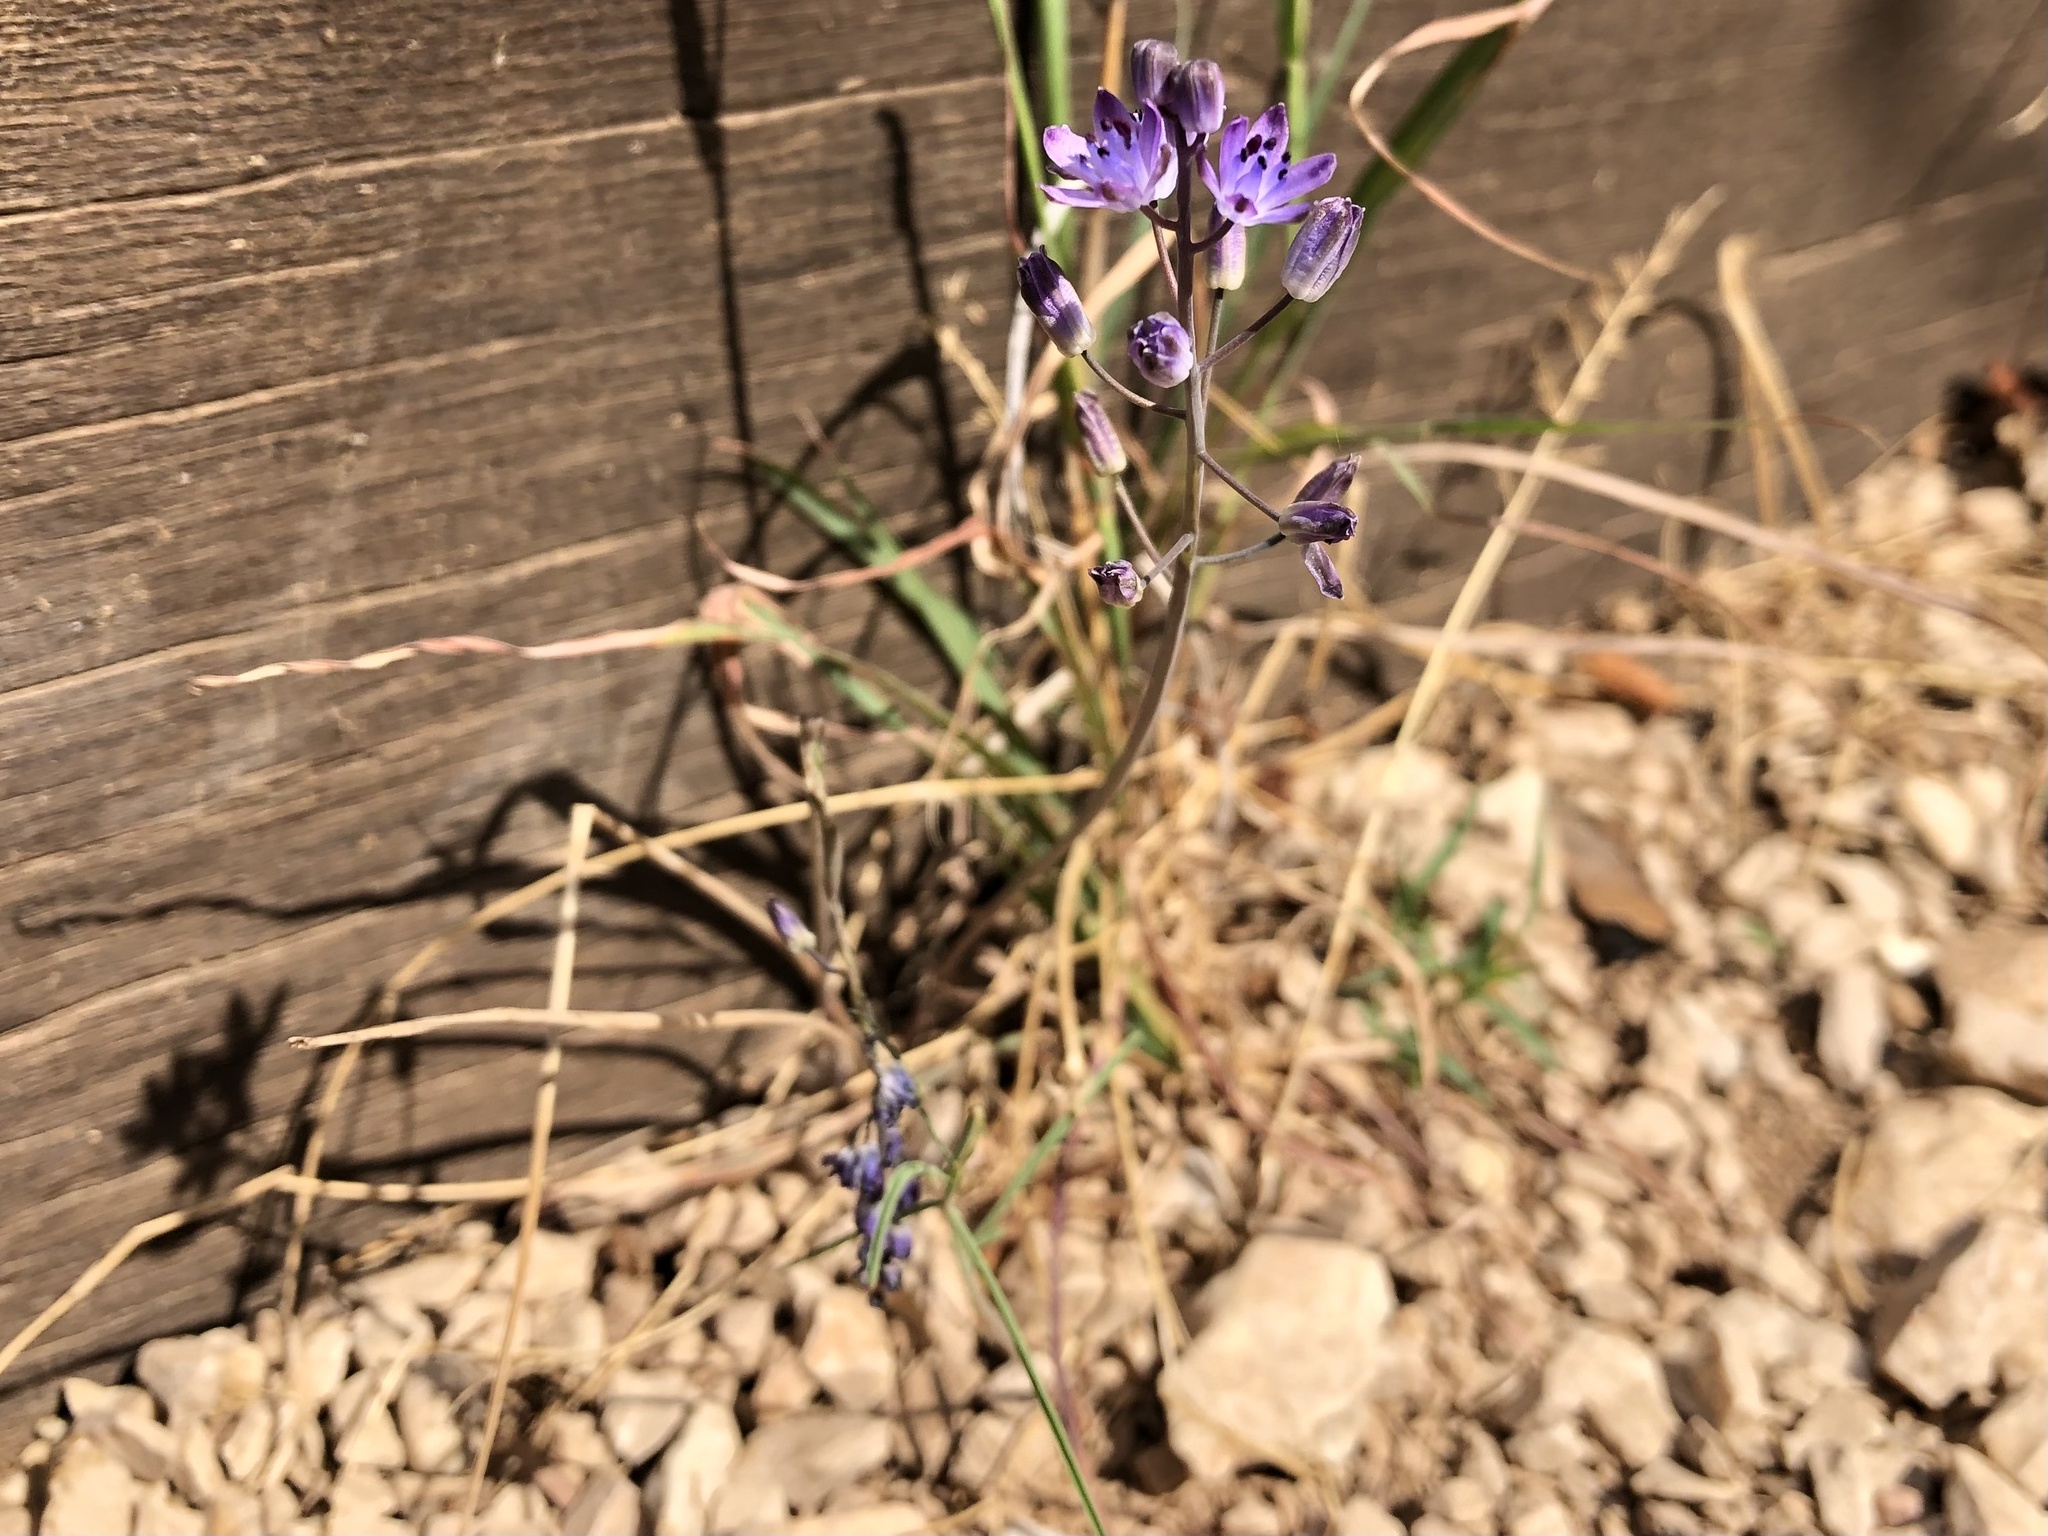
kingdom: Plantae
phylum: Tracheophyta
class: Liliopsida
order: Asparagales
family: Asparagaceae
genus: Prospero
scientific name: Prospero autumnale
